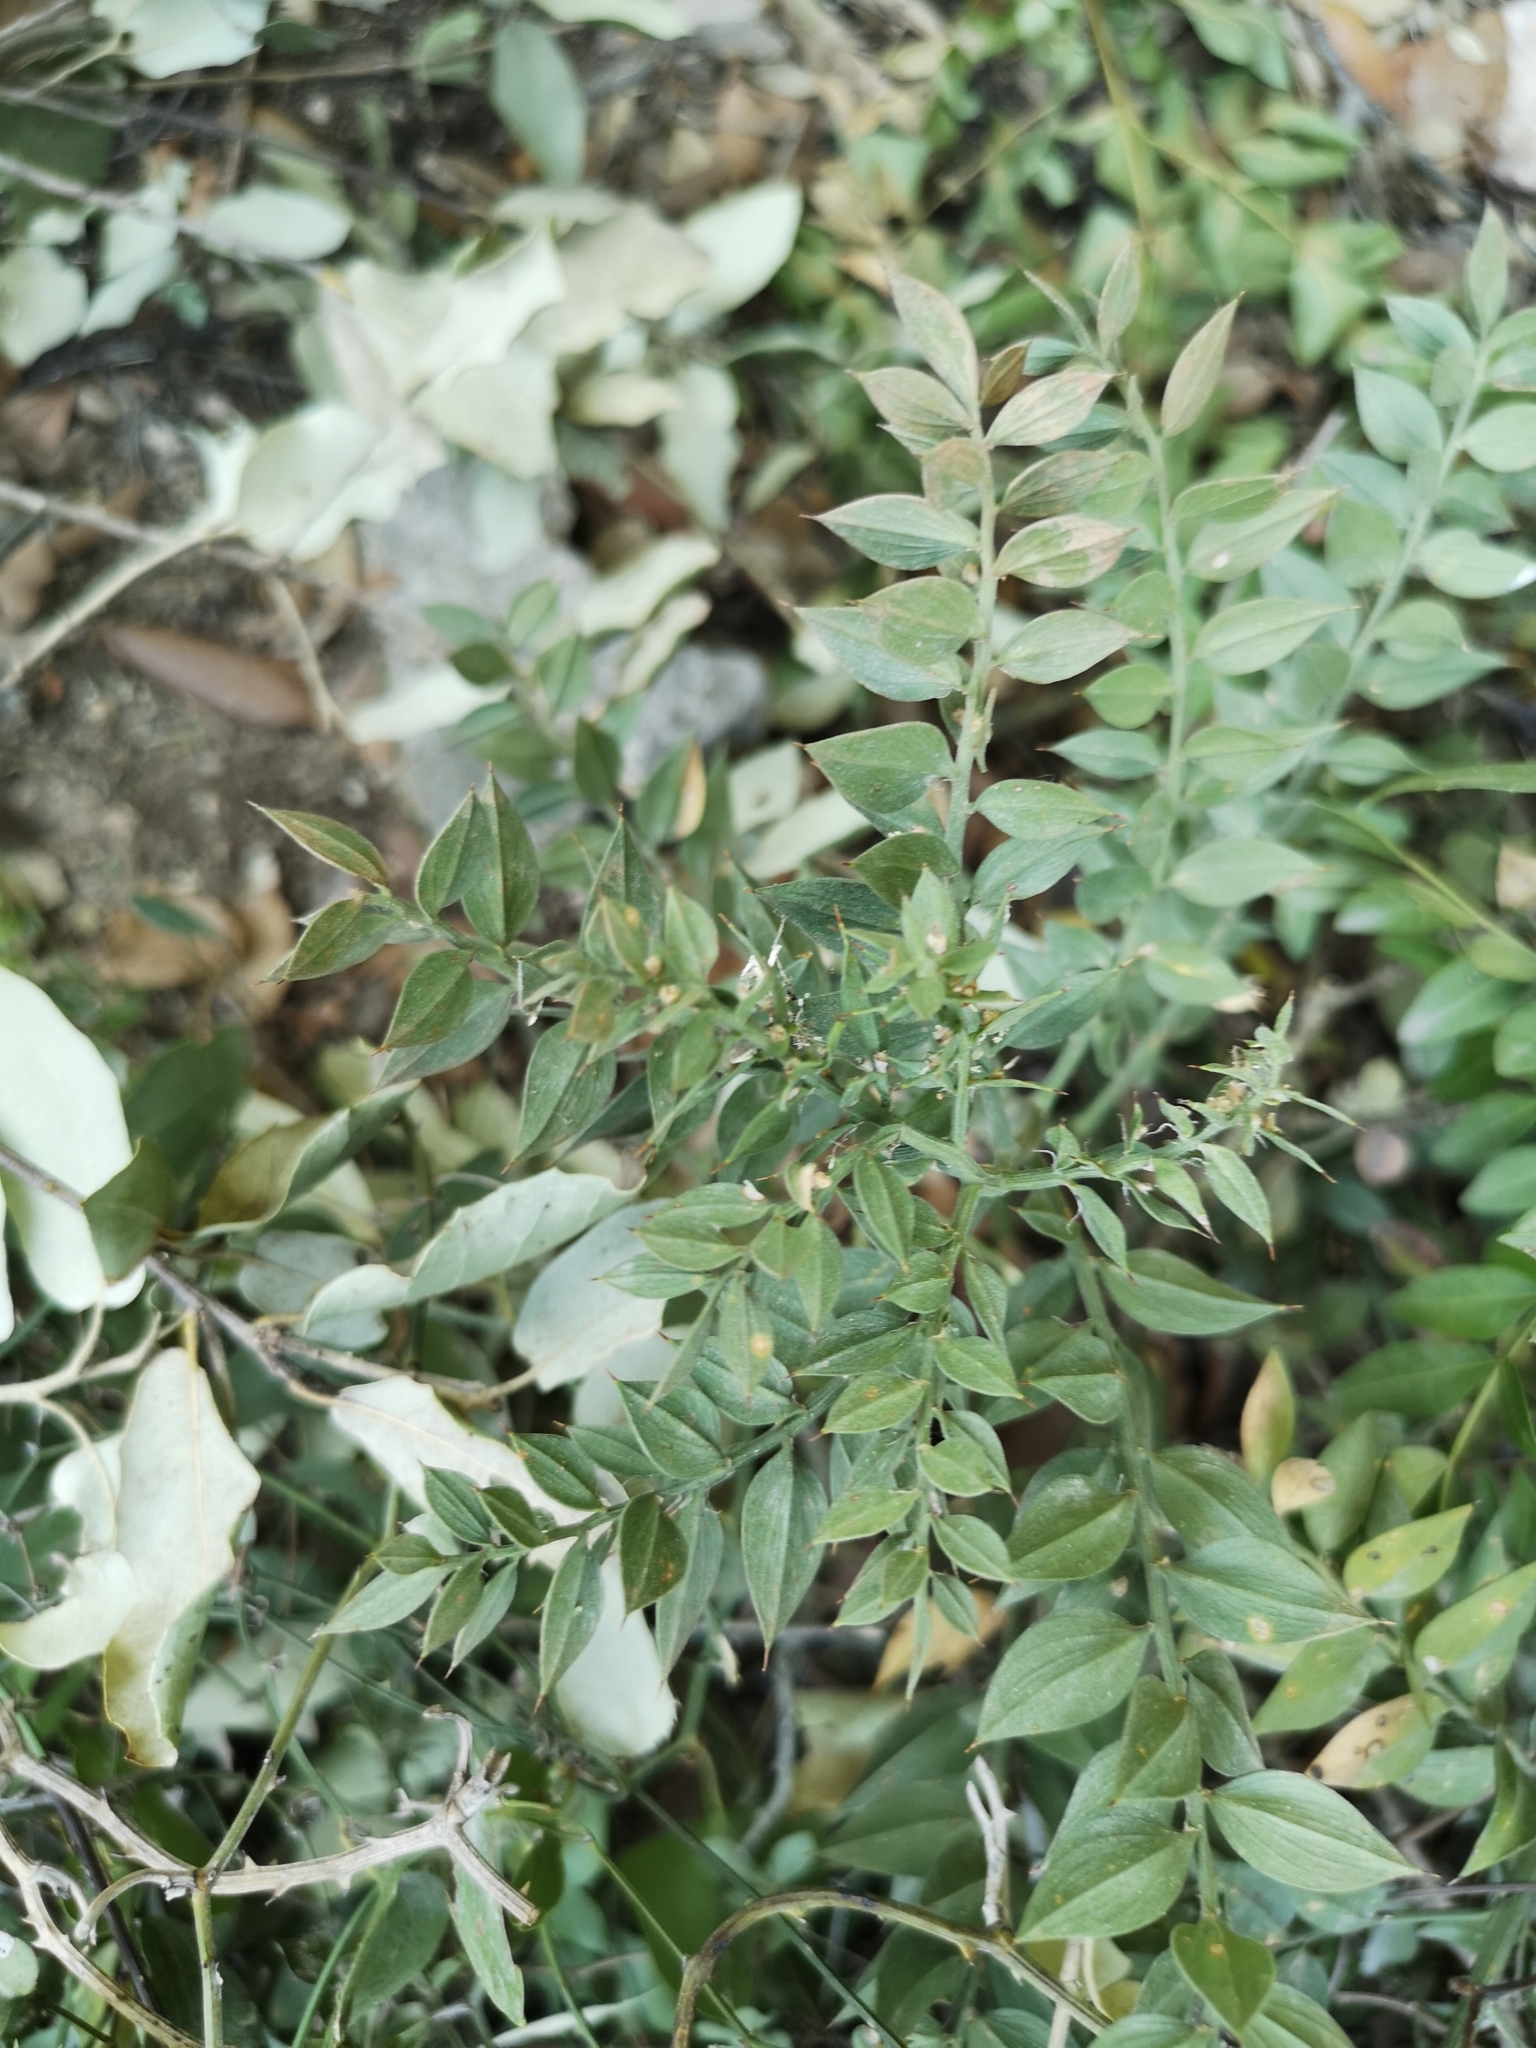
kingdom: Plantae
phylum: Tracheophyta
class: Liliopsida
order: Asparagales
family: Asparagaceae
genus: Ruscus
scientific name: Ruscus aculeatus
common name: Butcher's-broom
